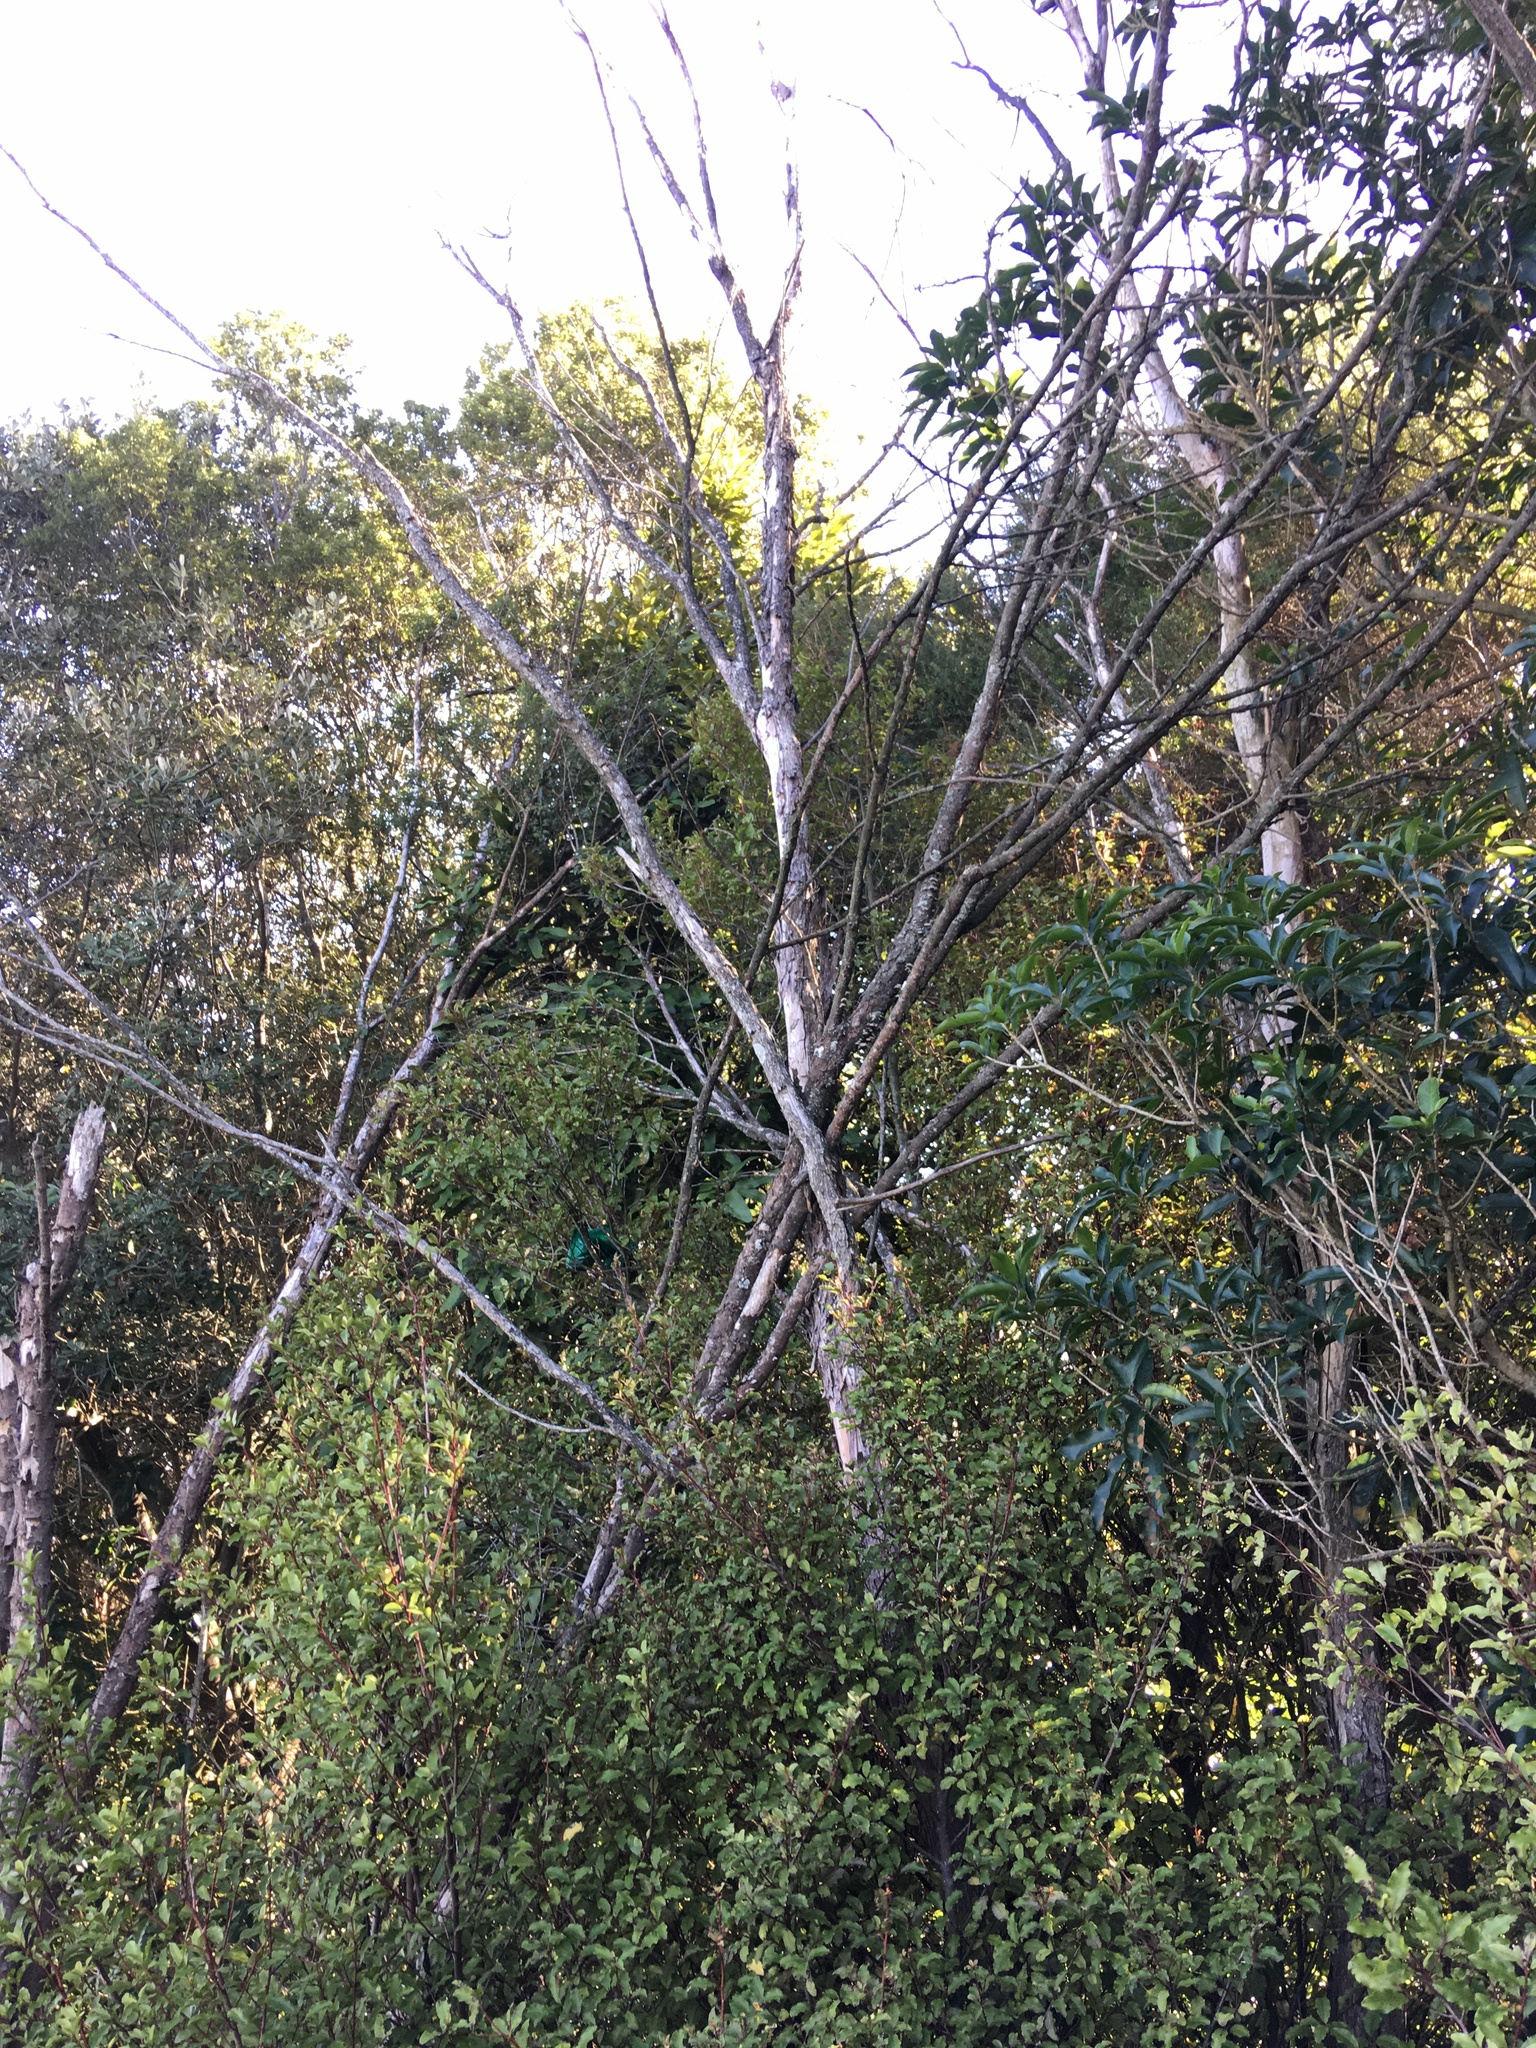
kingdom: Plantae
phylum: Tracheophyta
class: Magnoliopsida
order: Ericales
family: Primulaceae
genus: Myrsine
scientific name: Myrsine australis
